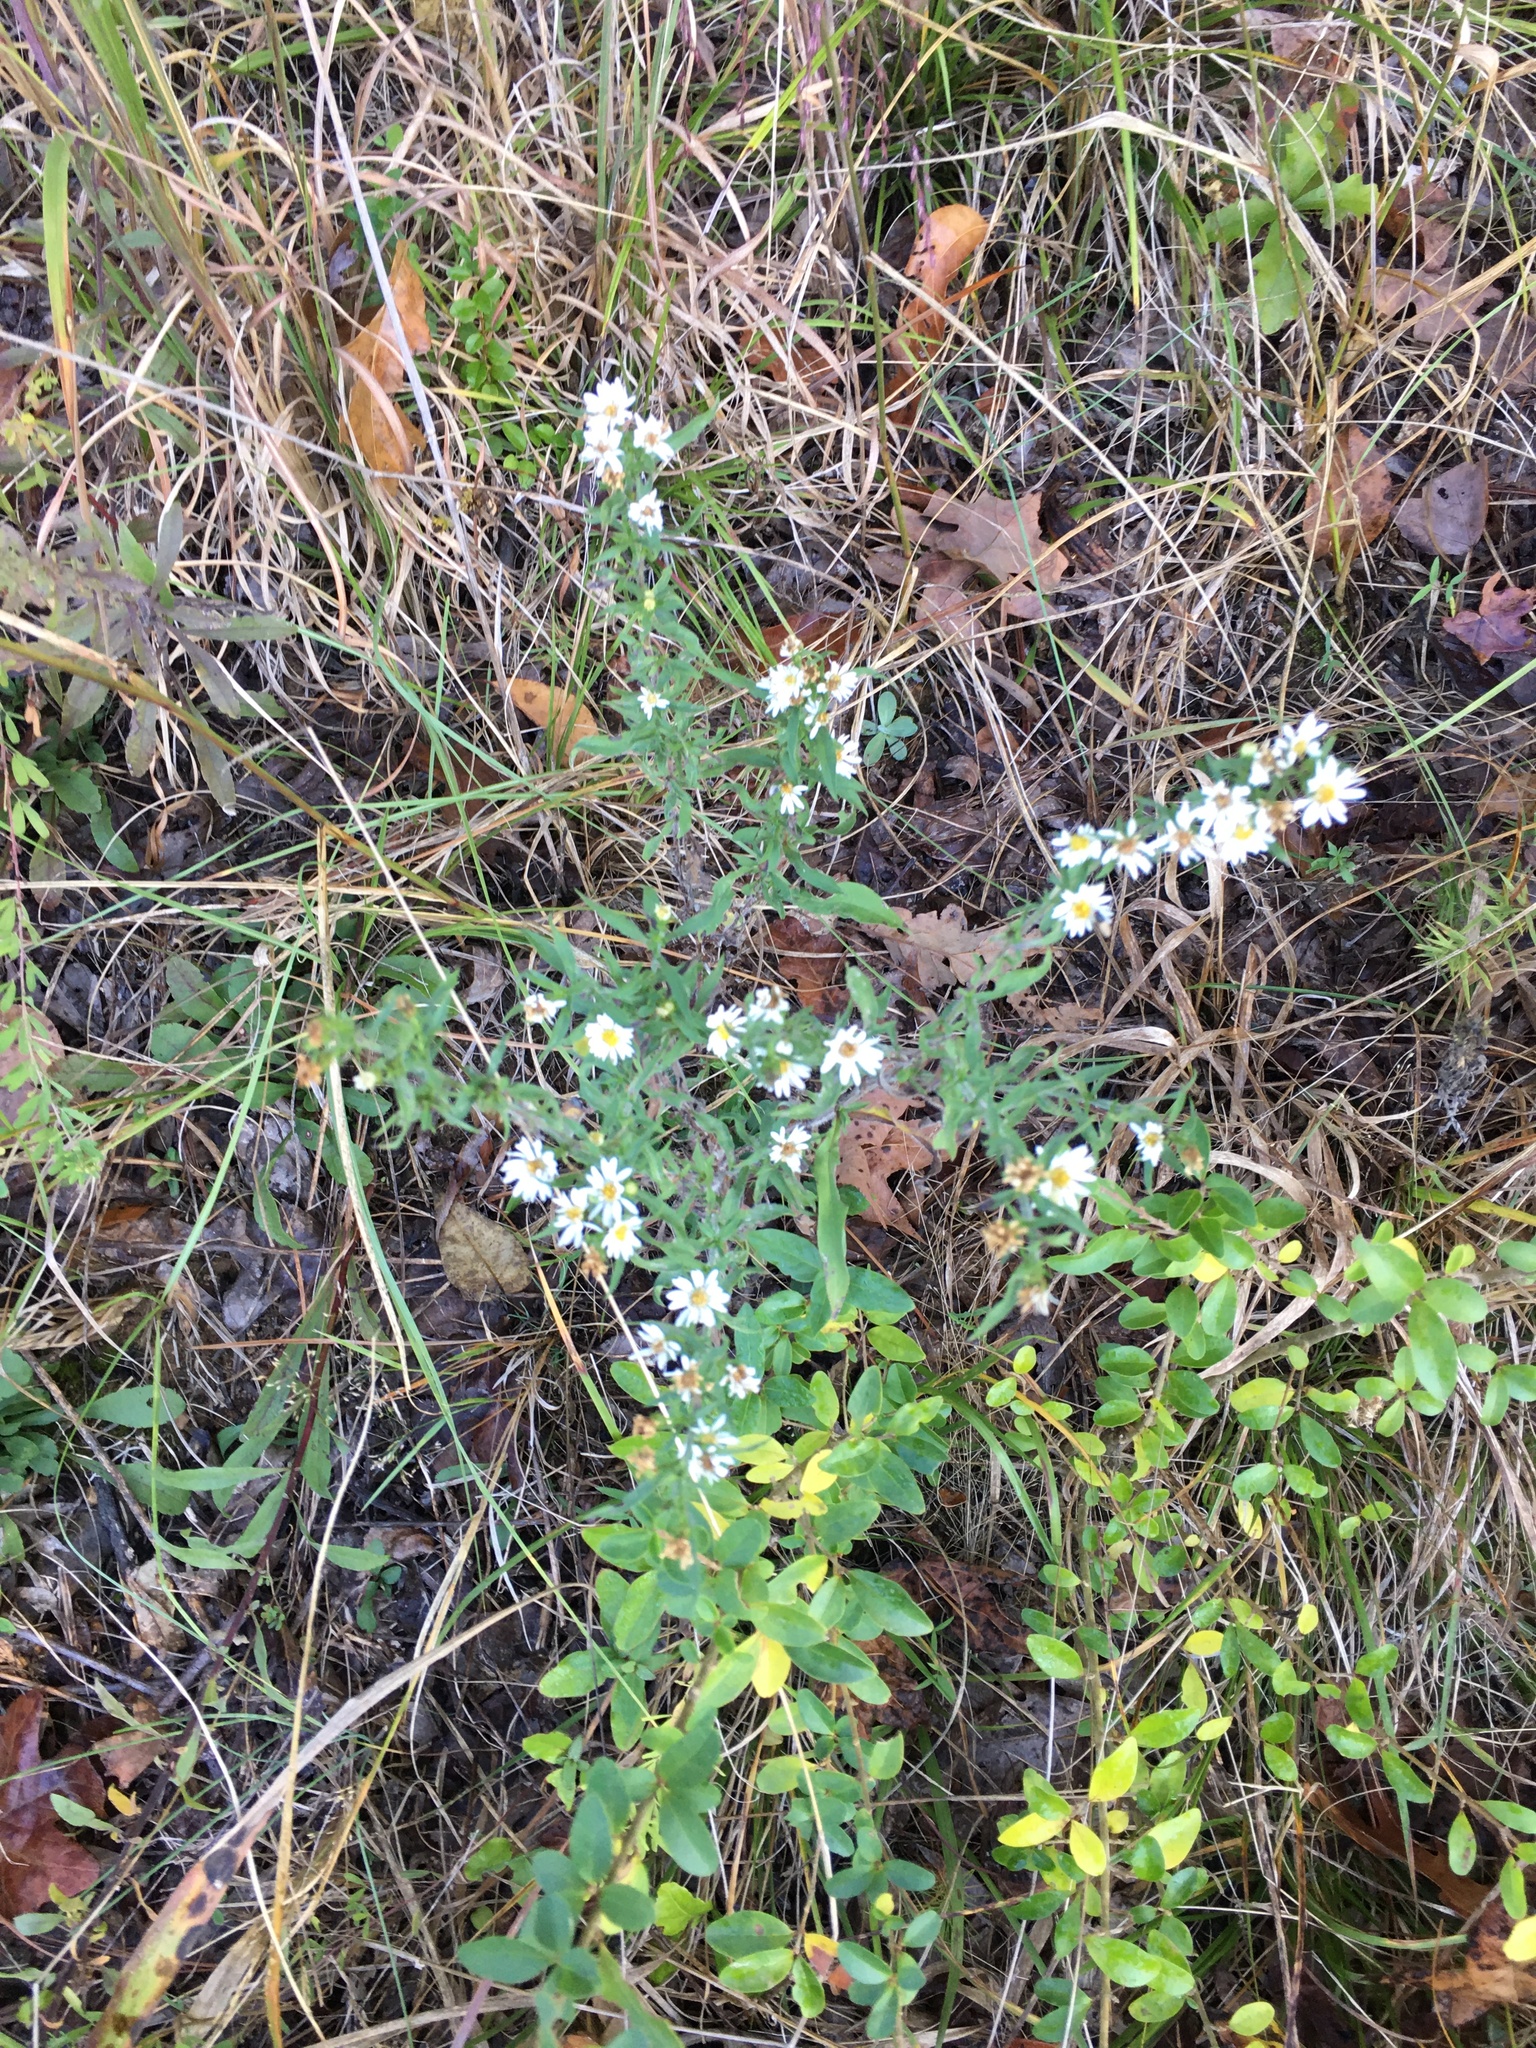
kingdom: Plantae
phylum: Tracheophyta
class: Magnoliopsida
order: Asterales
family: Asteraceae
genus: Symphyotrichum
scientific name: Symphyotrichum pilosum
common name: Awl aster
